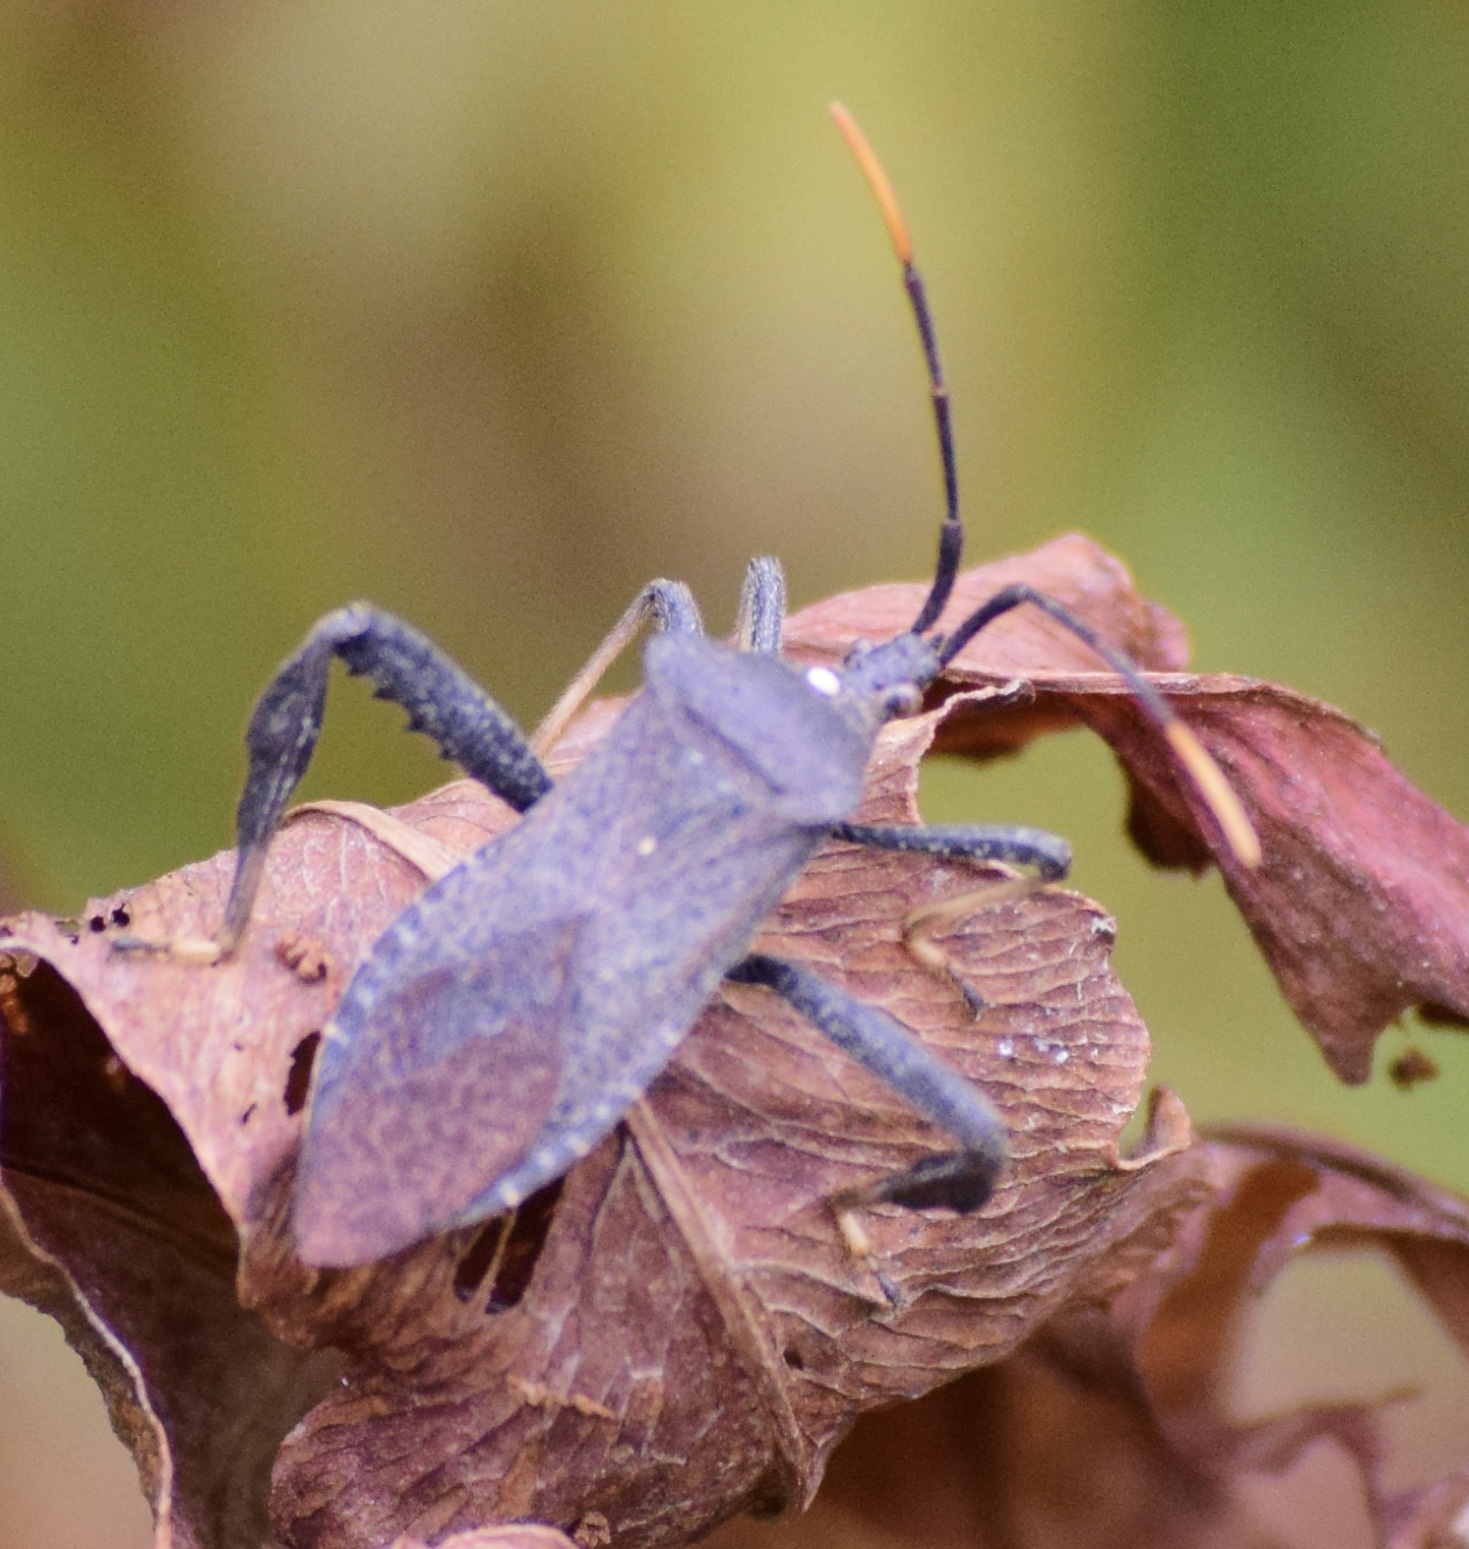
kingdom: Animalia
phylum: Arthropoda
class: Insecta
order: Hemiptera
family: Coreidae
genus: Acanthocephala
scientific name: Acanthocephala terminalis
